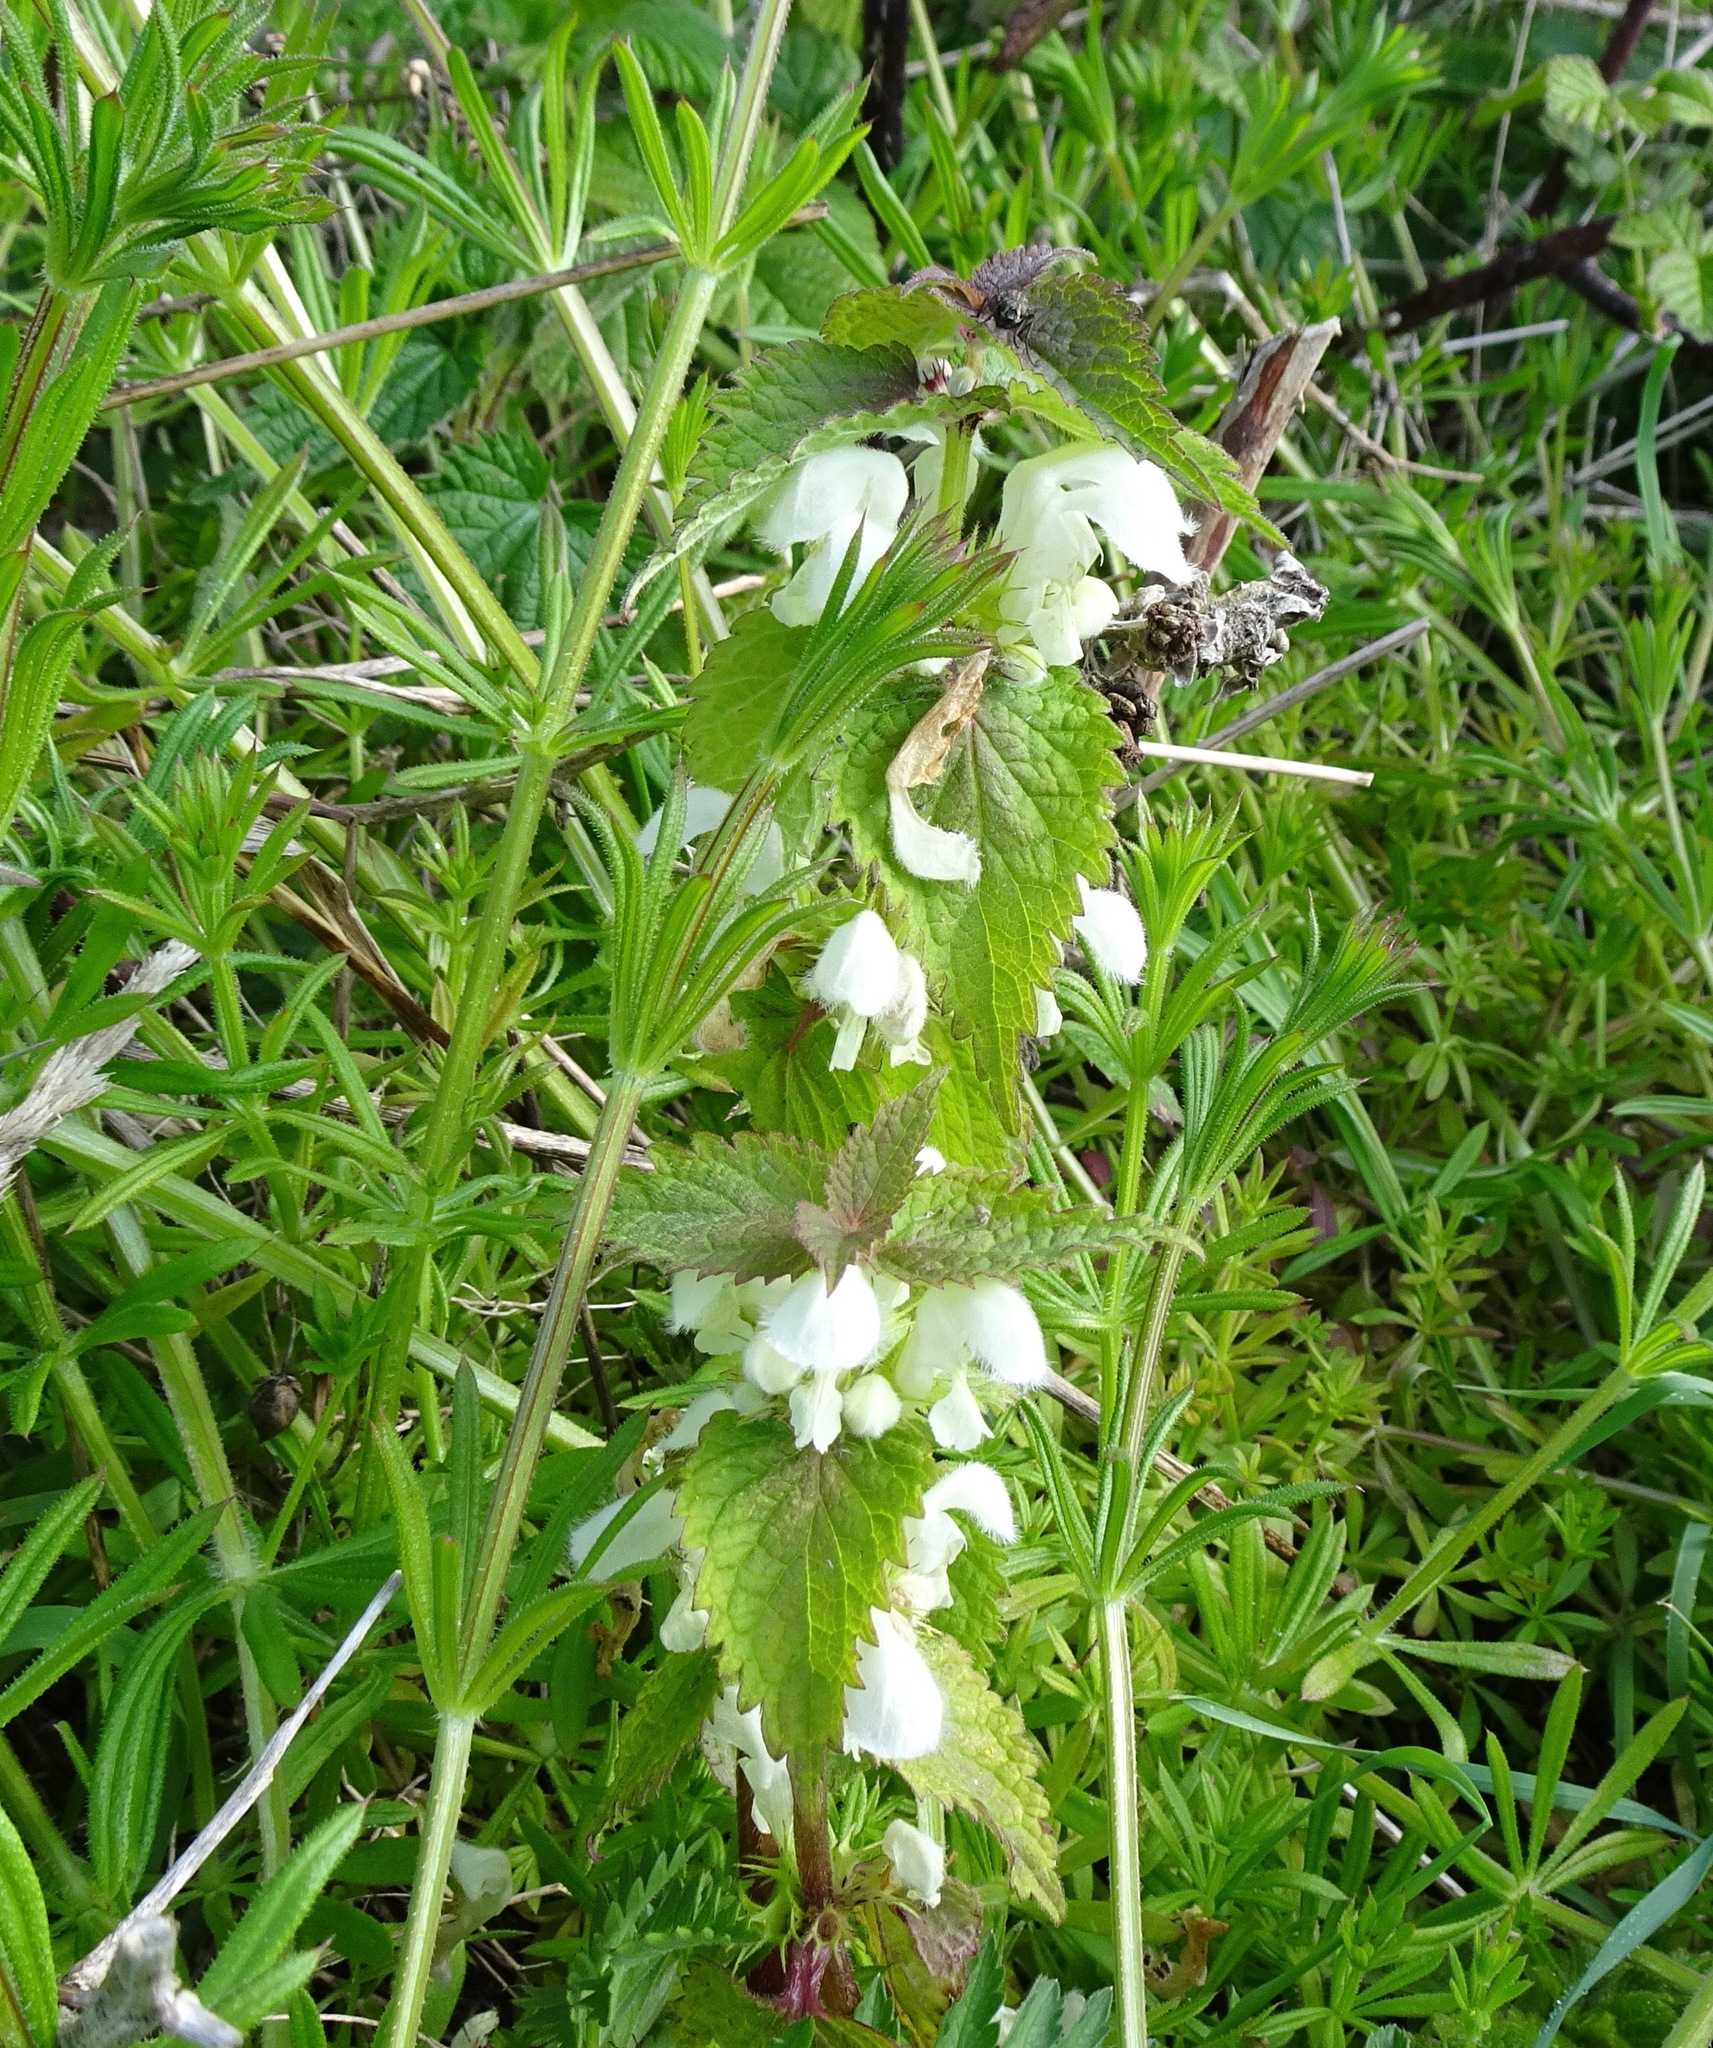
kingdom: Plantae
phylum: Tracheophyta
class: Magnoliopsida
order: Lamiales
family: Lamiaceae
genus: Lamium
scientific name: Lamium album
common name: White dead-nettle
